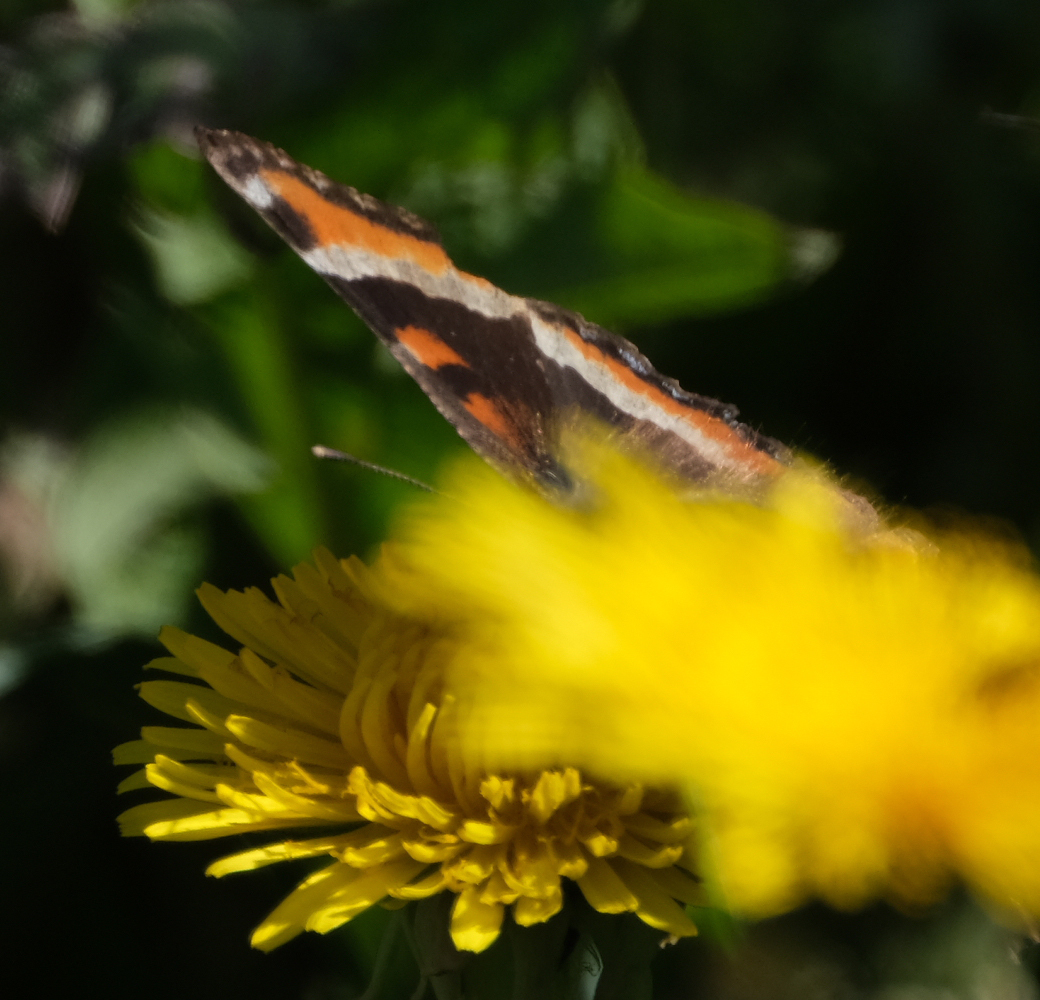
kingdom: Animalia
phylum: Arthropoda
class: Insecta
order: Lepidoptera
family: Nymphalidae
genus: Aglais
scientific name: Aglais milberti
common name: Milbert's tortoiseshell
